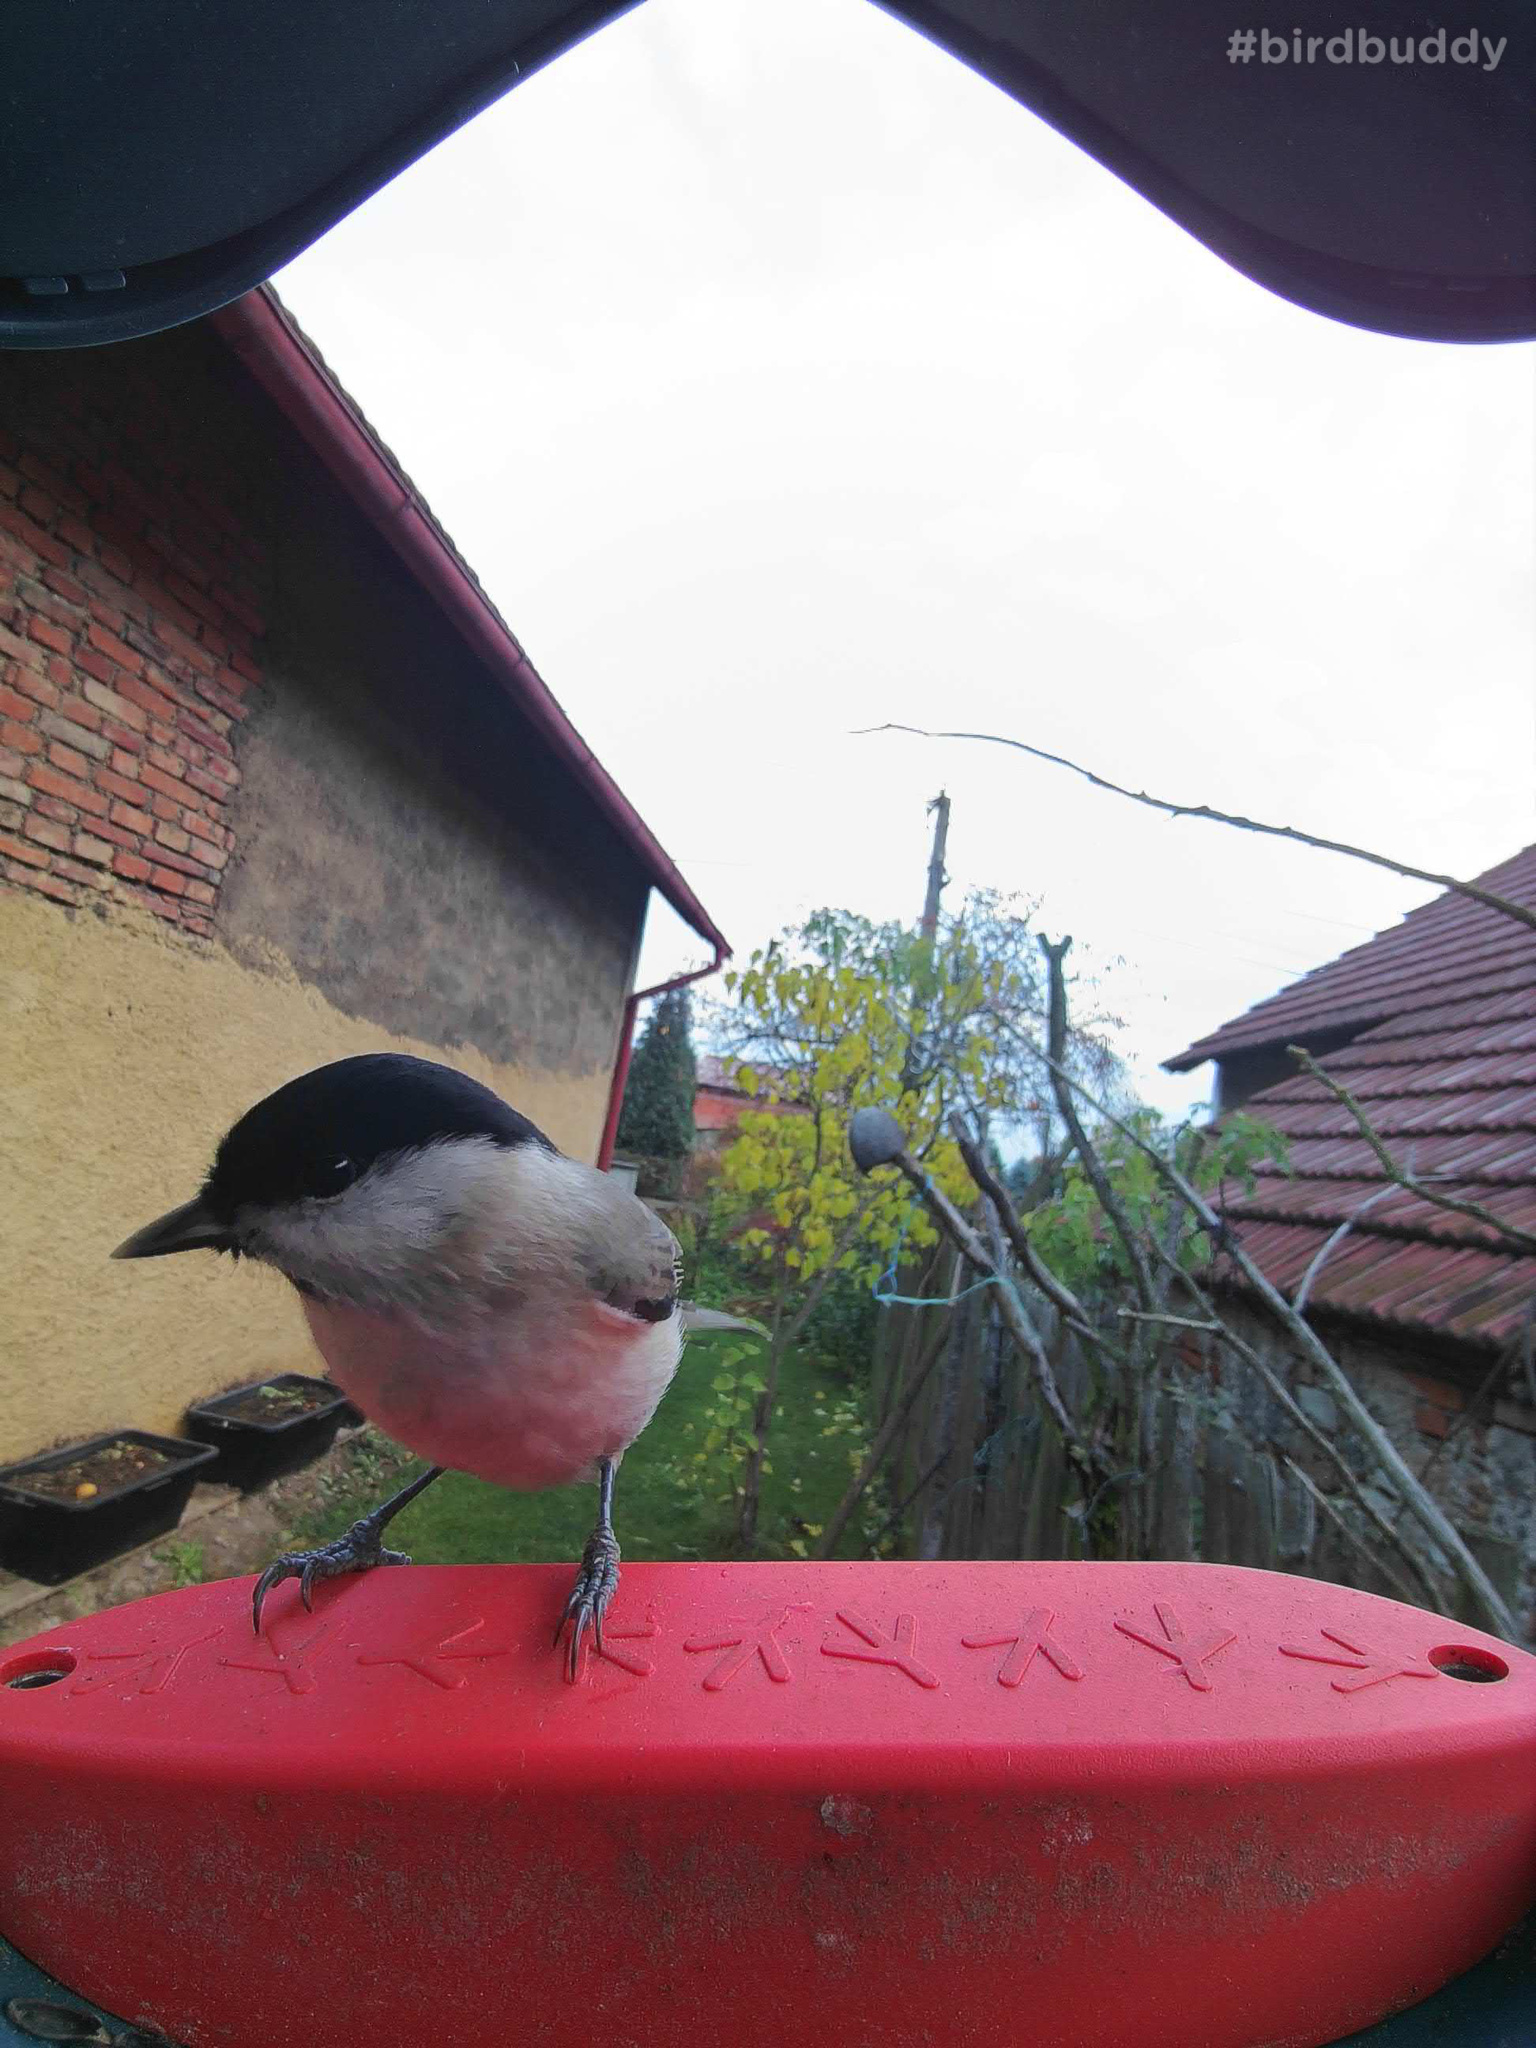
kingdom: Animalia
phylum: Chordata
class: Aves
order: Passeriformes
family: Paridae
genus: Poecile
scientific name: Poecile palustris
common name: Marsh tit
